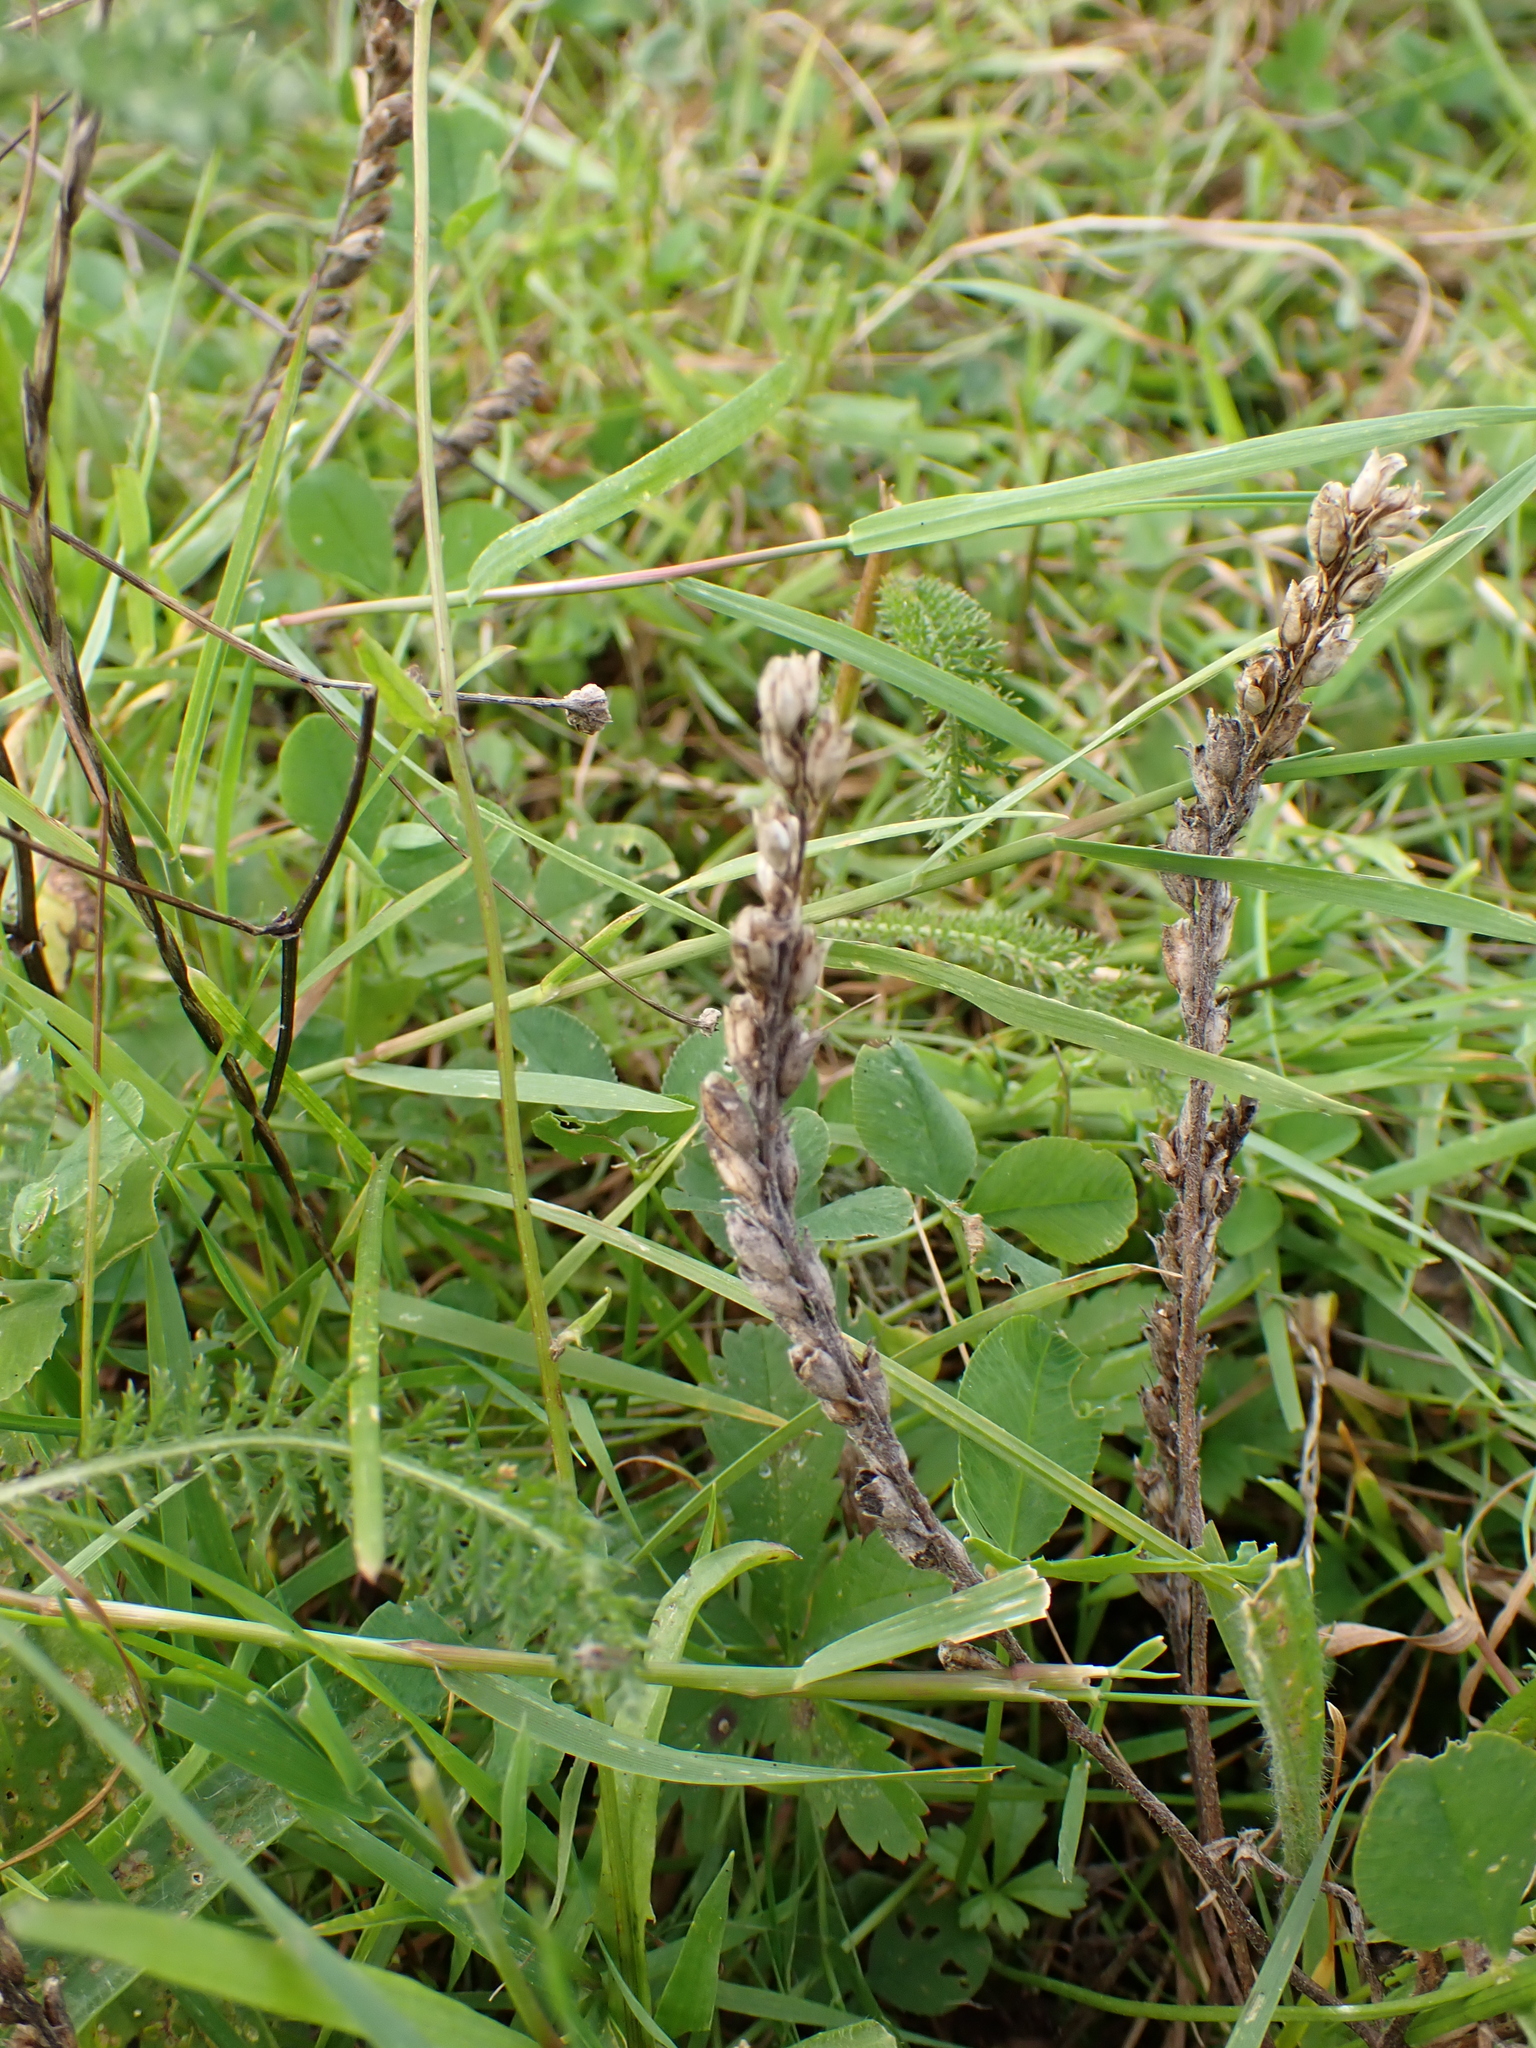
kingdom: Plantae
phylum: Tracheophyta
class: Magnoliopsida
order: Lamiales
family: Orobanchaceae
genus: Odontites
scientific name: Odontites vulgaris
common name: Broomrape
